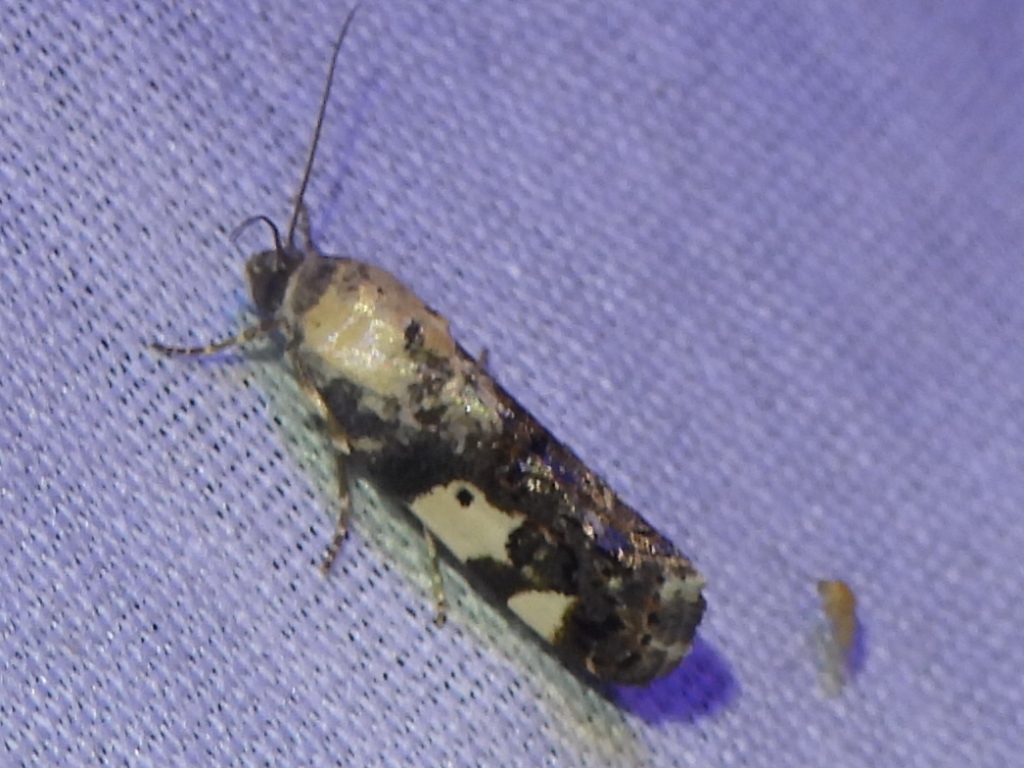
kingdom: Animalia
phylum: Arthropoda
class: Insecta
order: Lepidoptera
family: Noctuidae
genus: Acontia
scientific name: Acontia aprica
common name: Nun
